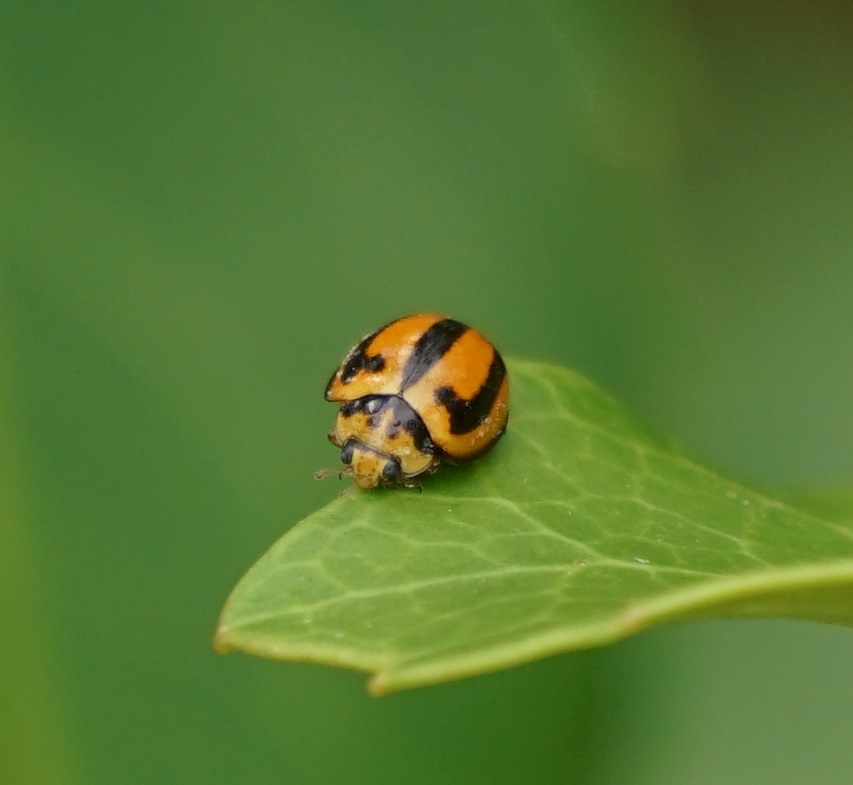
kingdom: Animalia
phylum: Arthropoda
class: Insecta
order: Coleoptera
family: Coccinellidae
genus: Micraspis
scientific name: Micraspis frenata
